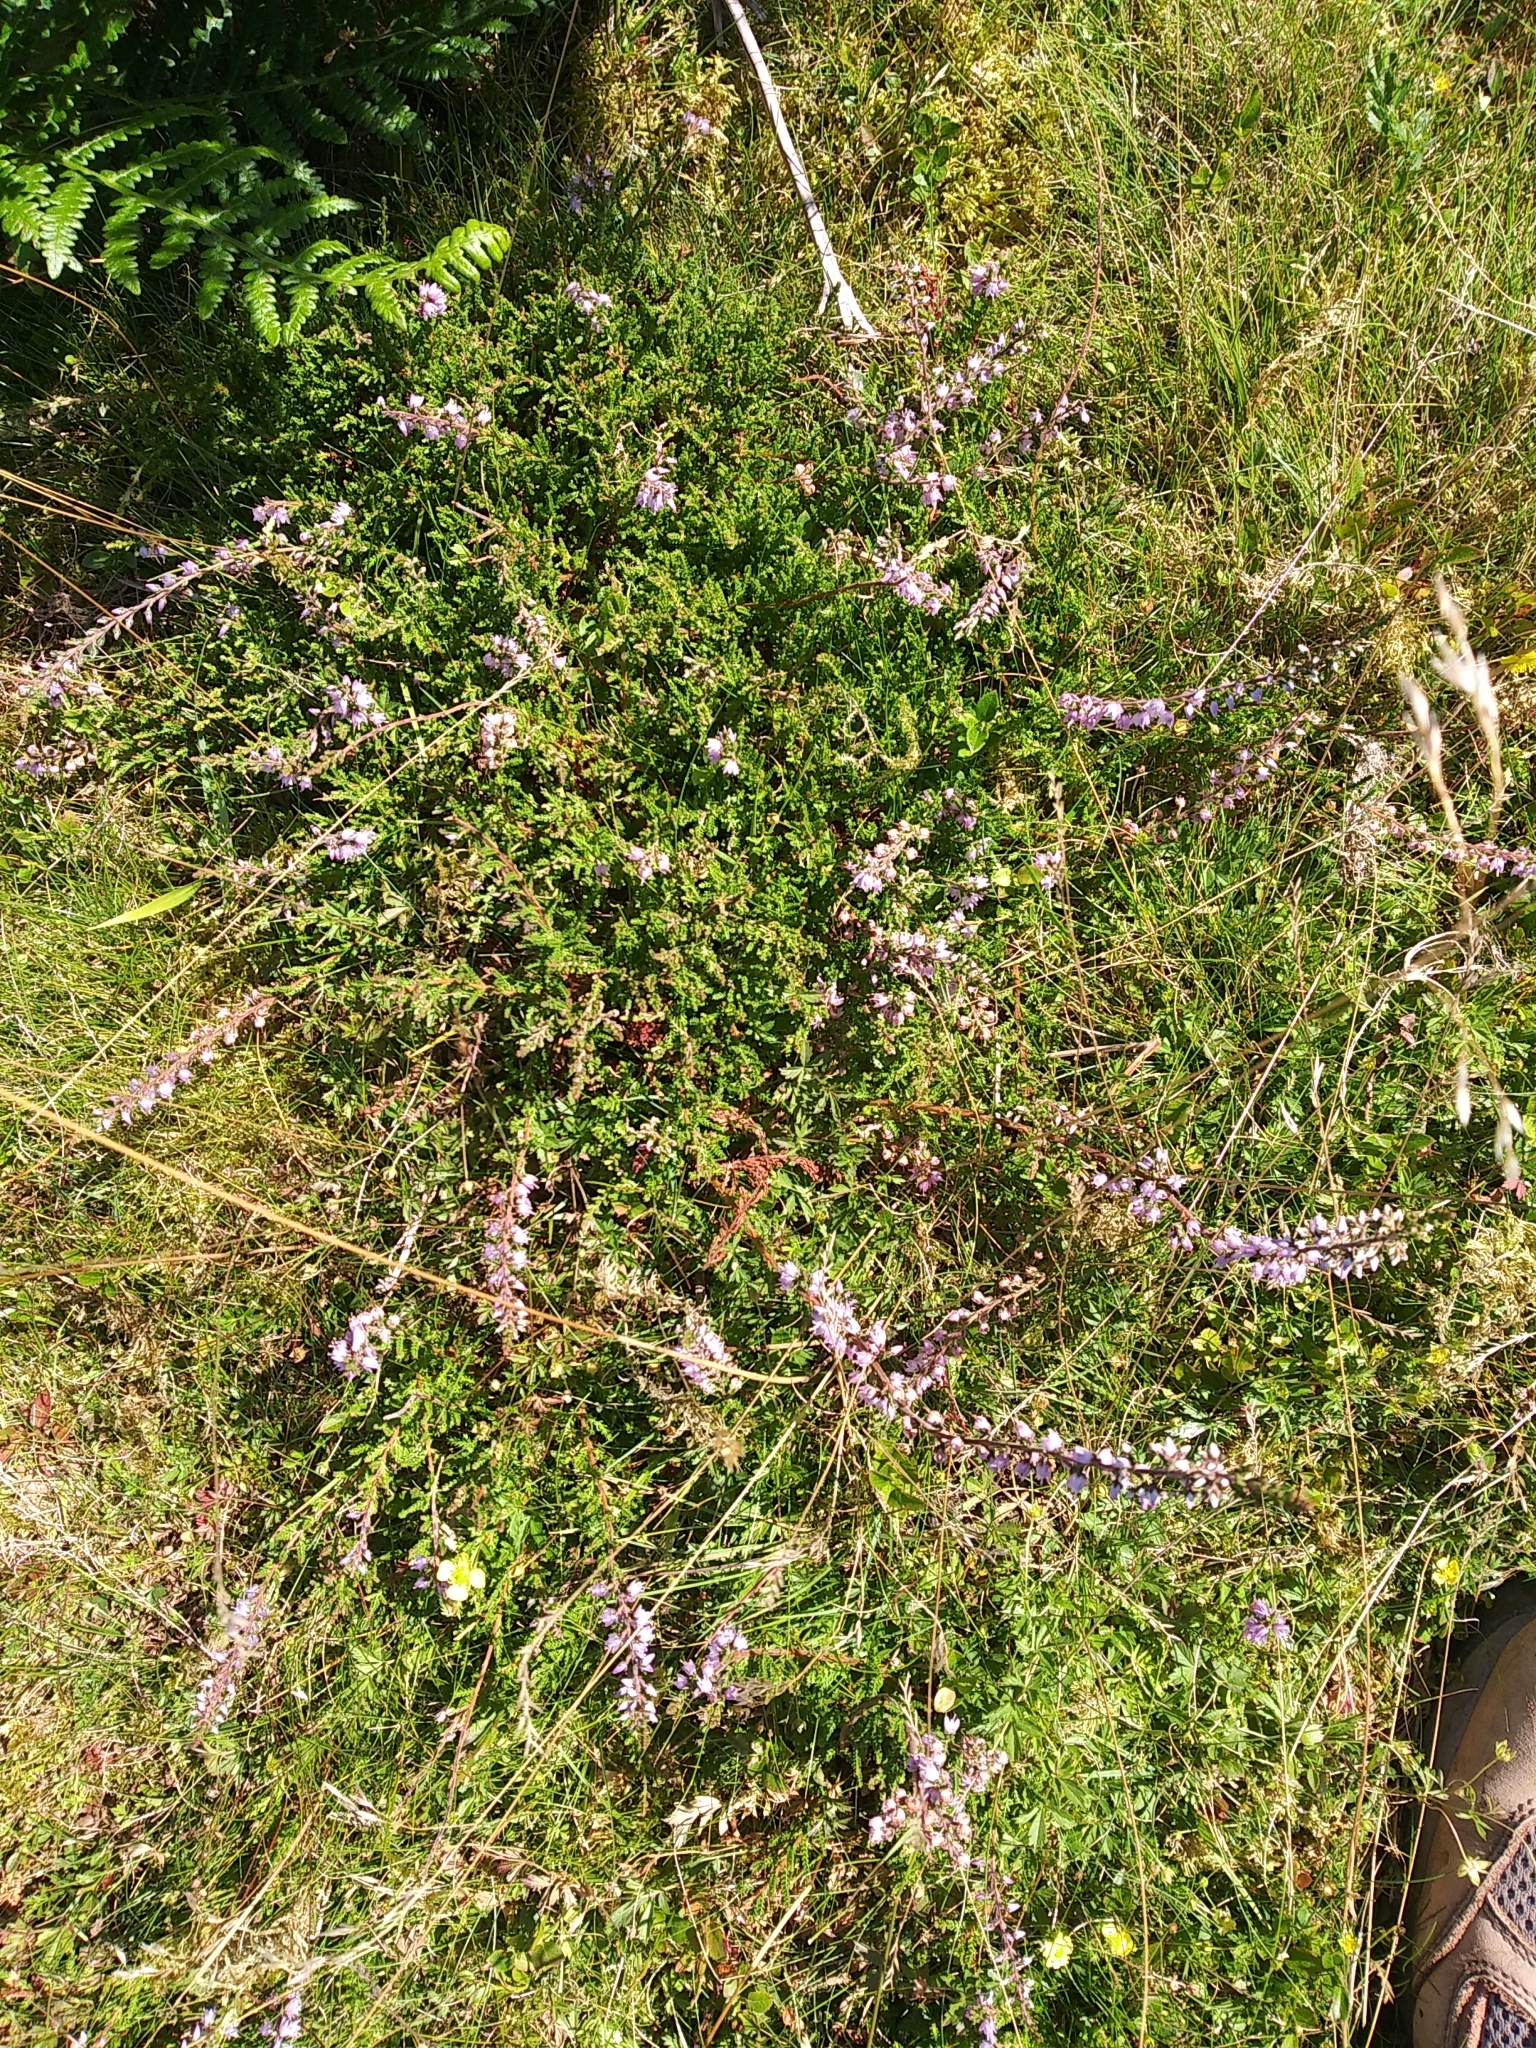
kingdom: Plantae
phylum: Tracheophyta
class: Magnoliopsida
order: Ericales
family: Ericaceae
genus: Calluna
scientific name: Calluna vulgaris
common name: Heather
